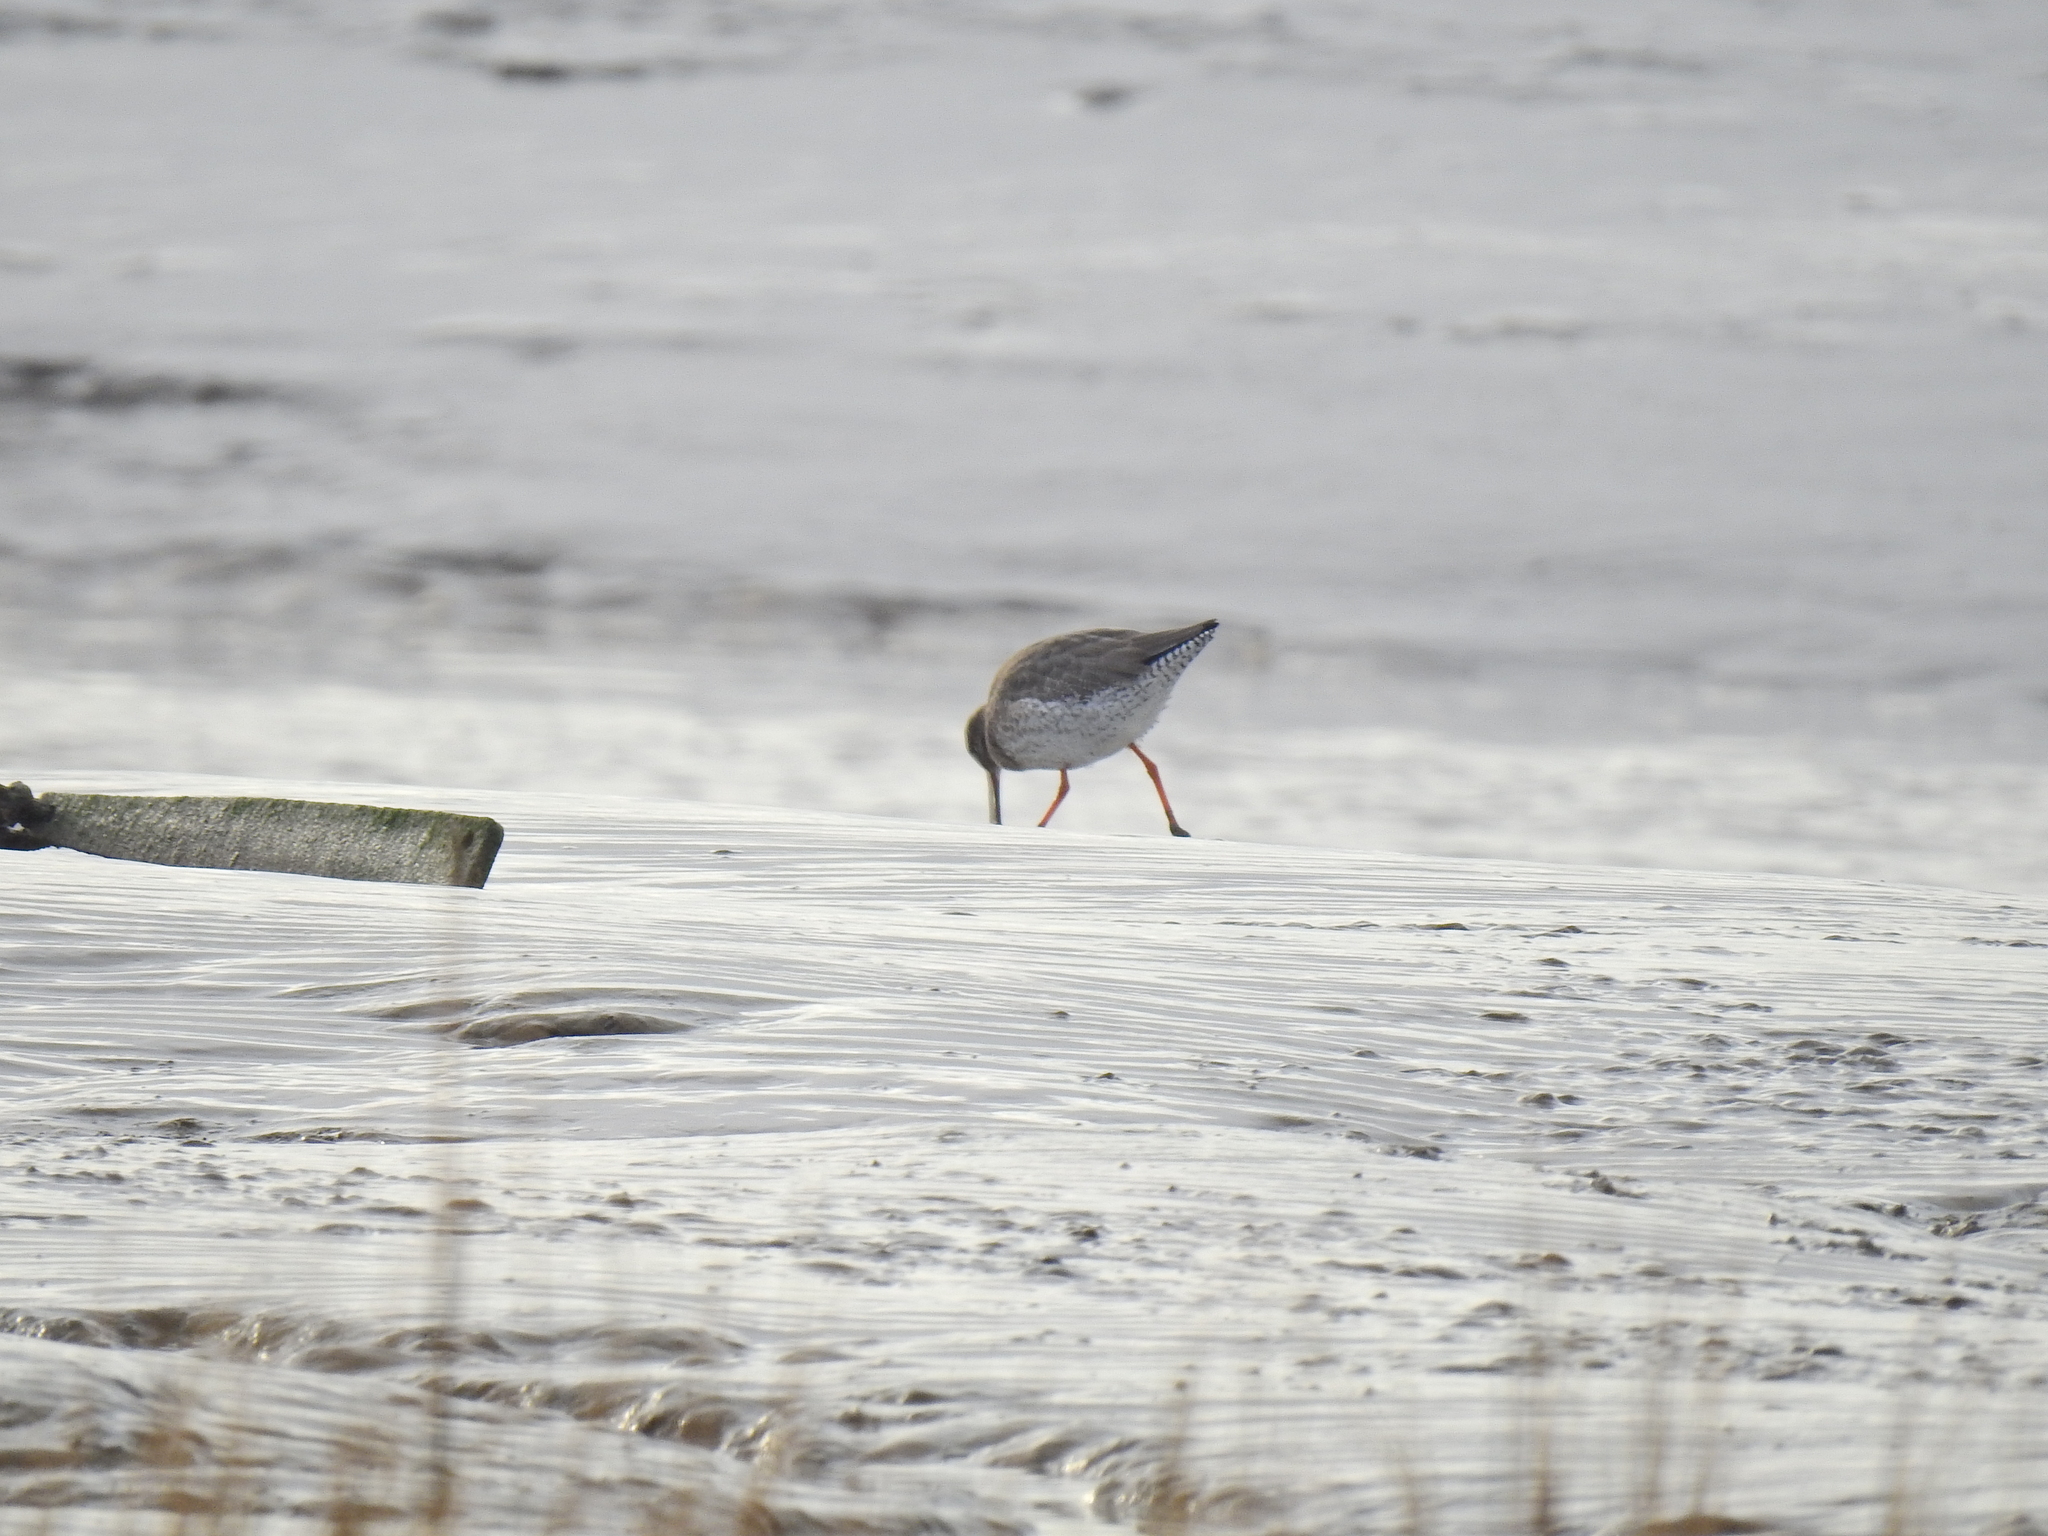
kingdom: Animalia
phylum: Chordata
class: Aves
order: Charadriiformes
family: Scolopacidae
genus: Tringa
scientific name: Tringa totanus
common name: Common redshank
